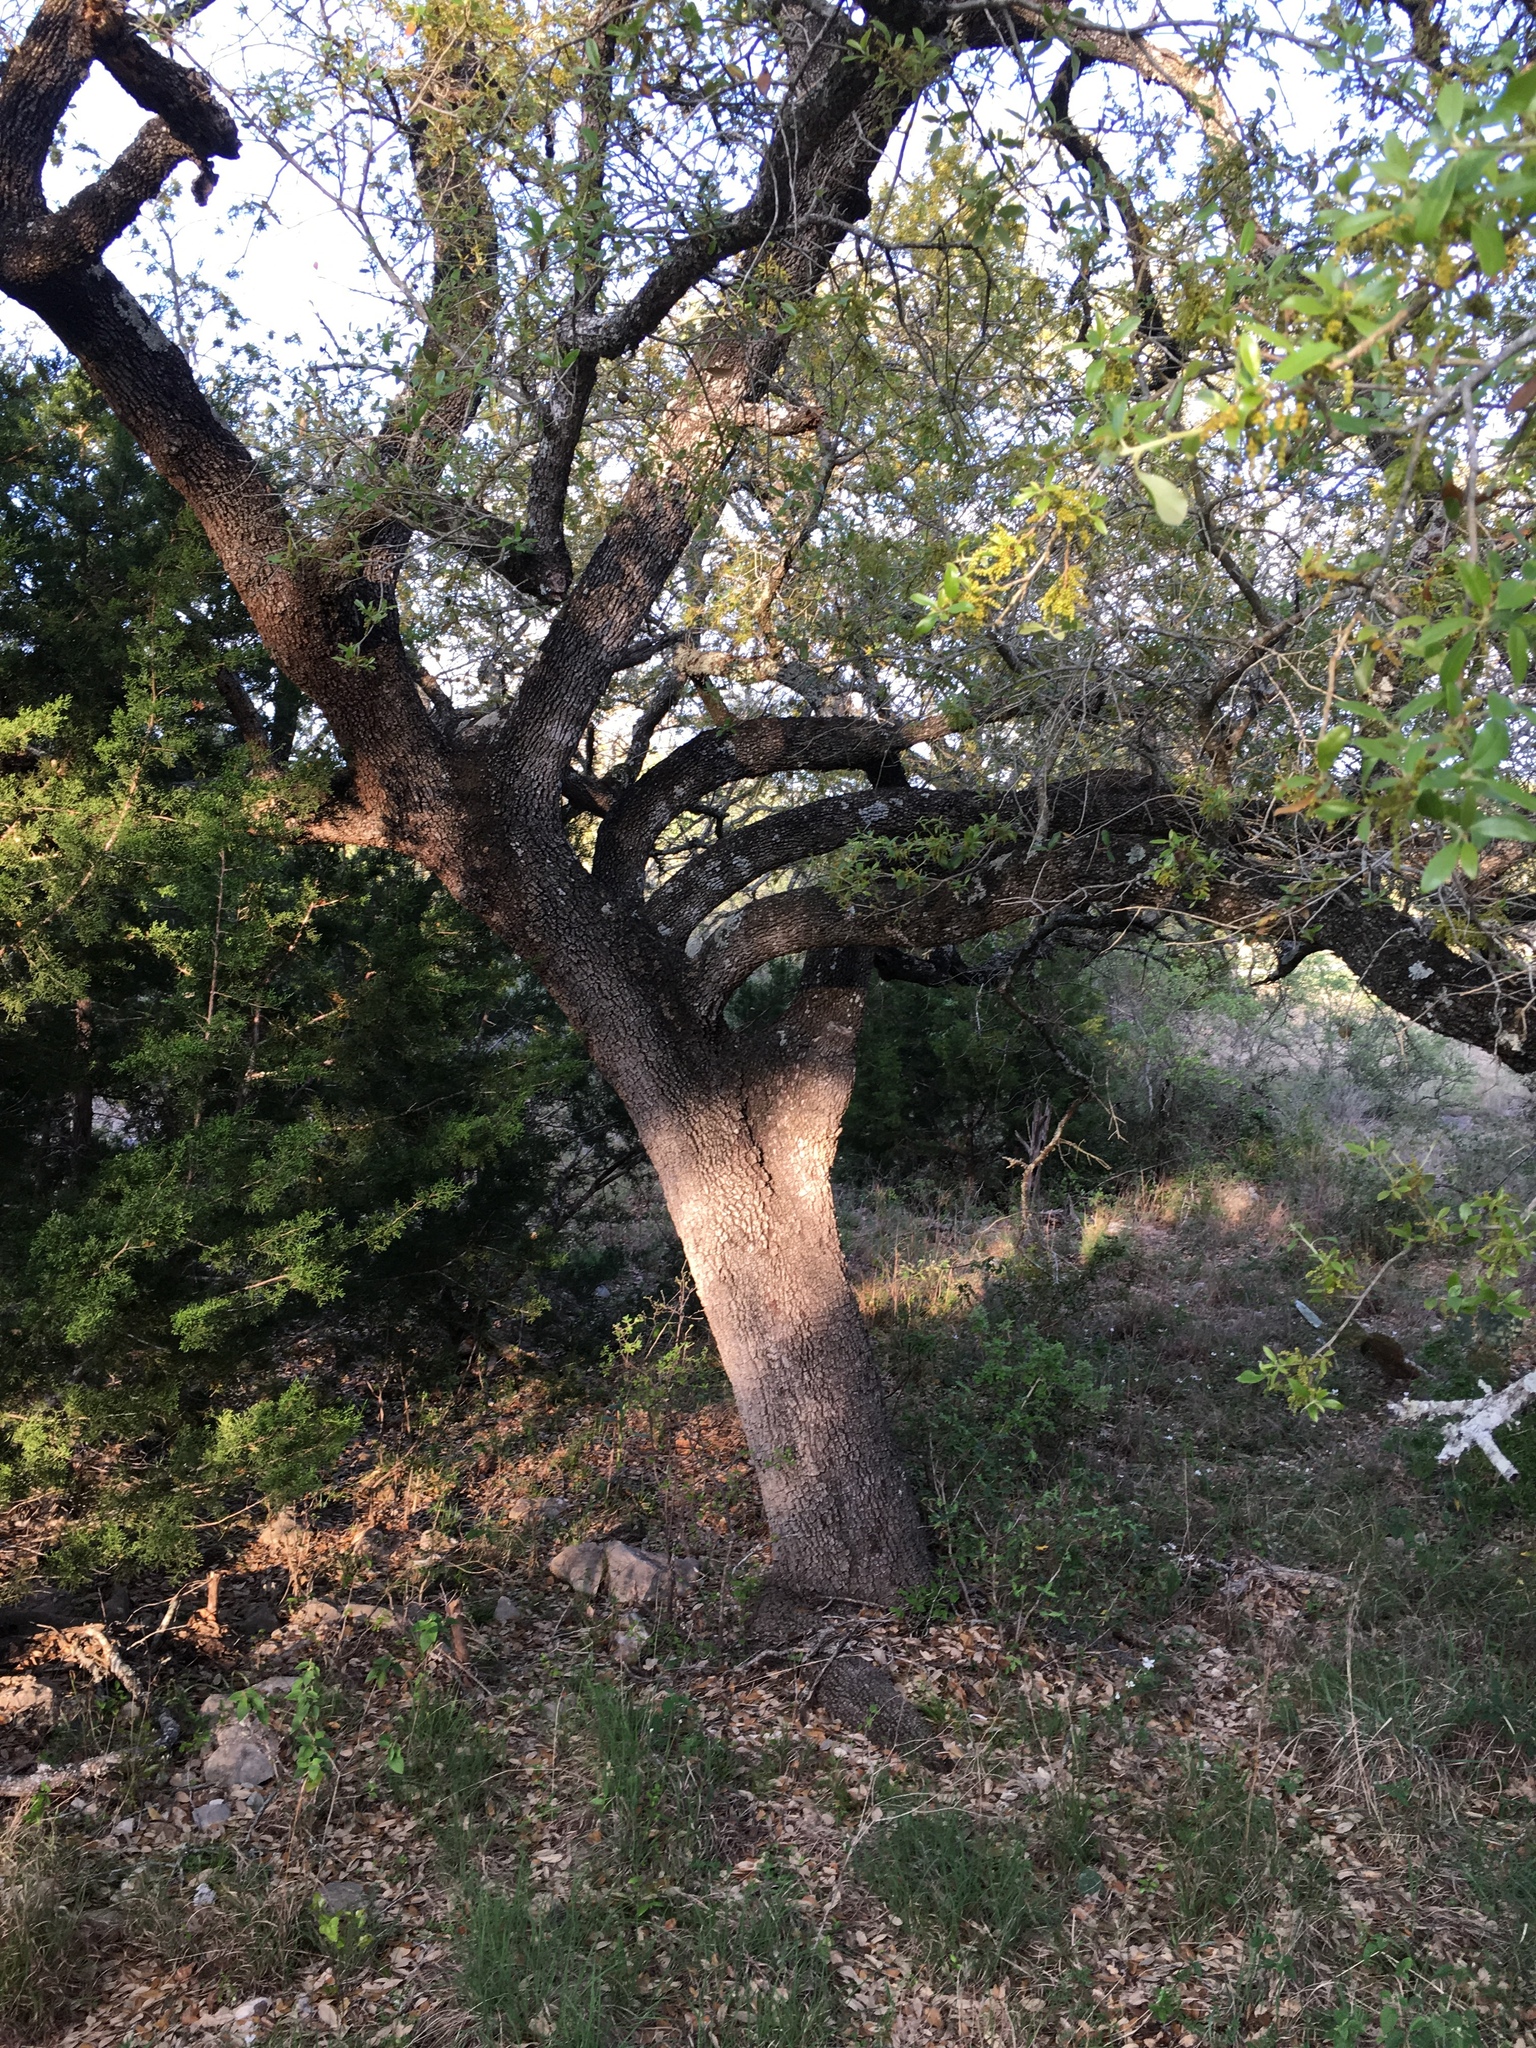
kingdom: Plantae
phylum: Tracheophyta
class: Magnoliopsida
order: Fagales
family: Fagaceae
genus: Quercus
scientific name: Quercus fusiformis
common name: Texas live oak
